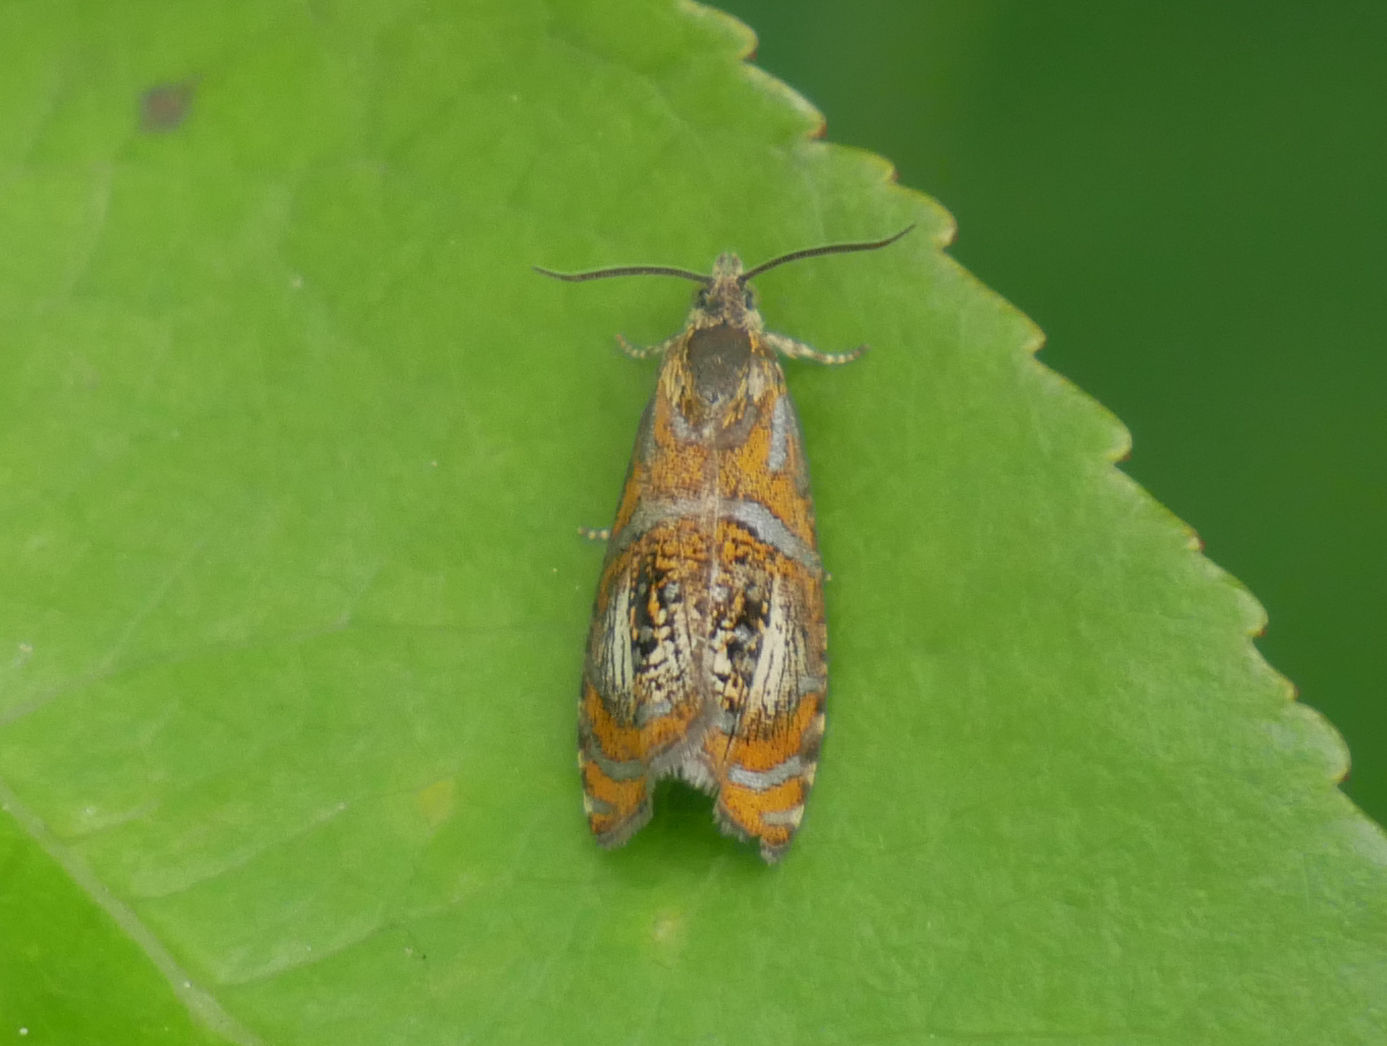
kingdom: Animalia
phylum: Arthropoda
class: Insecta
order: Lepidoptera
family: Tortricidae
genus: Olethreutes
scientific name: Olethreutes arcuella
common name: Arched marble
